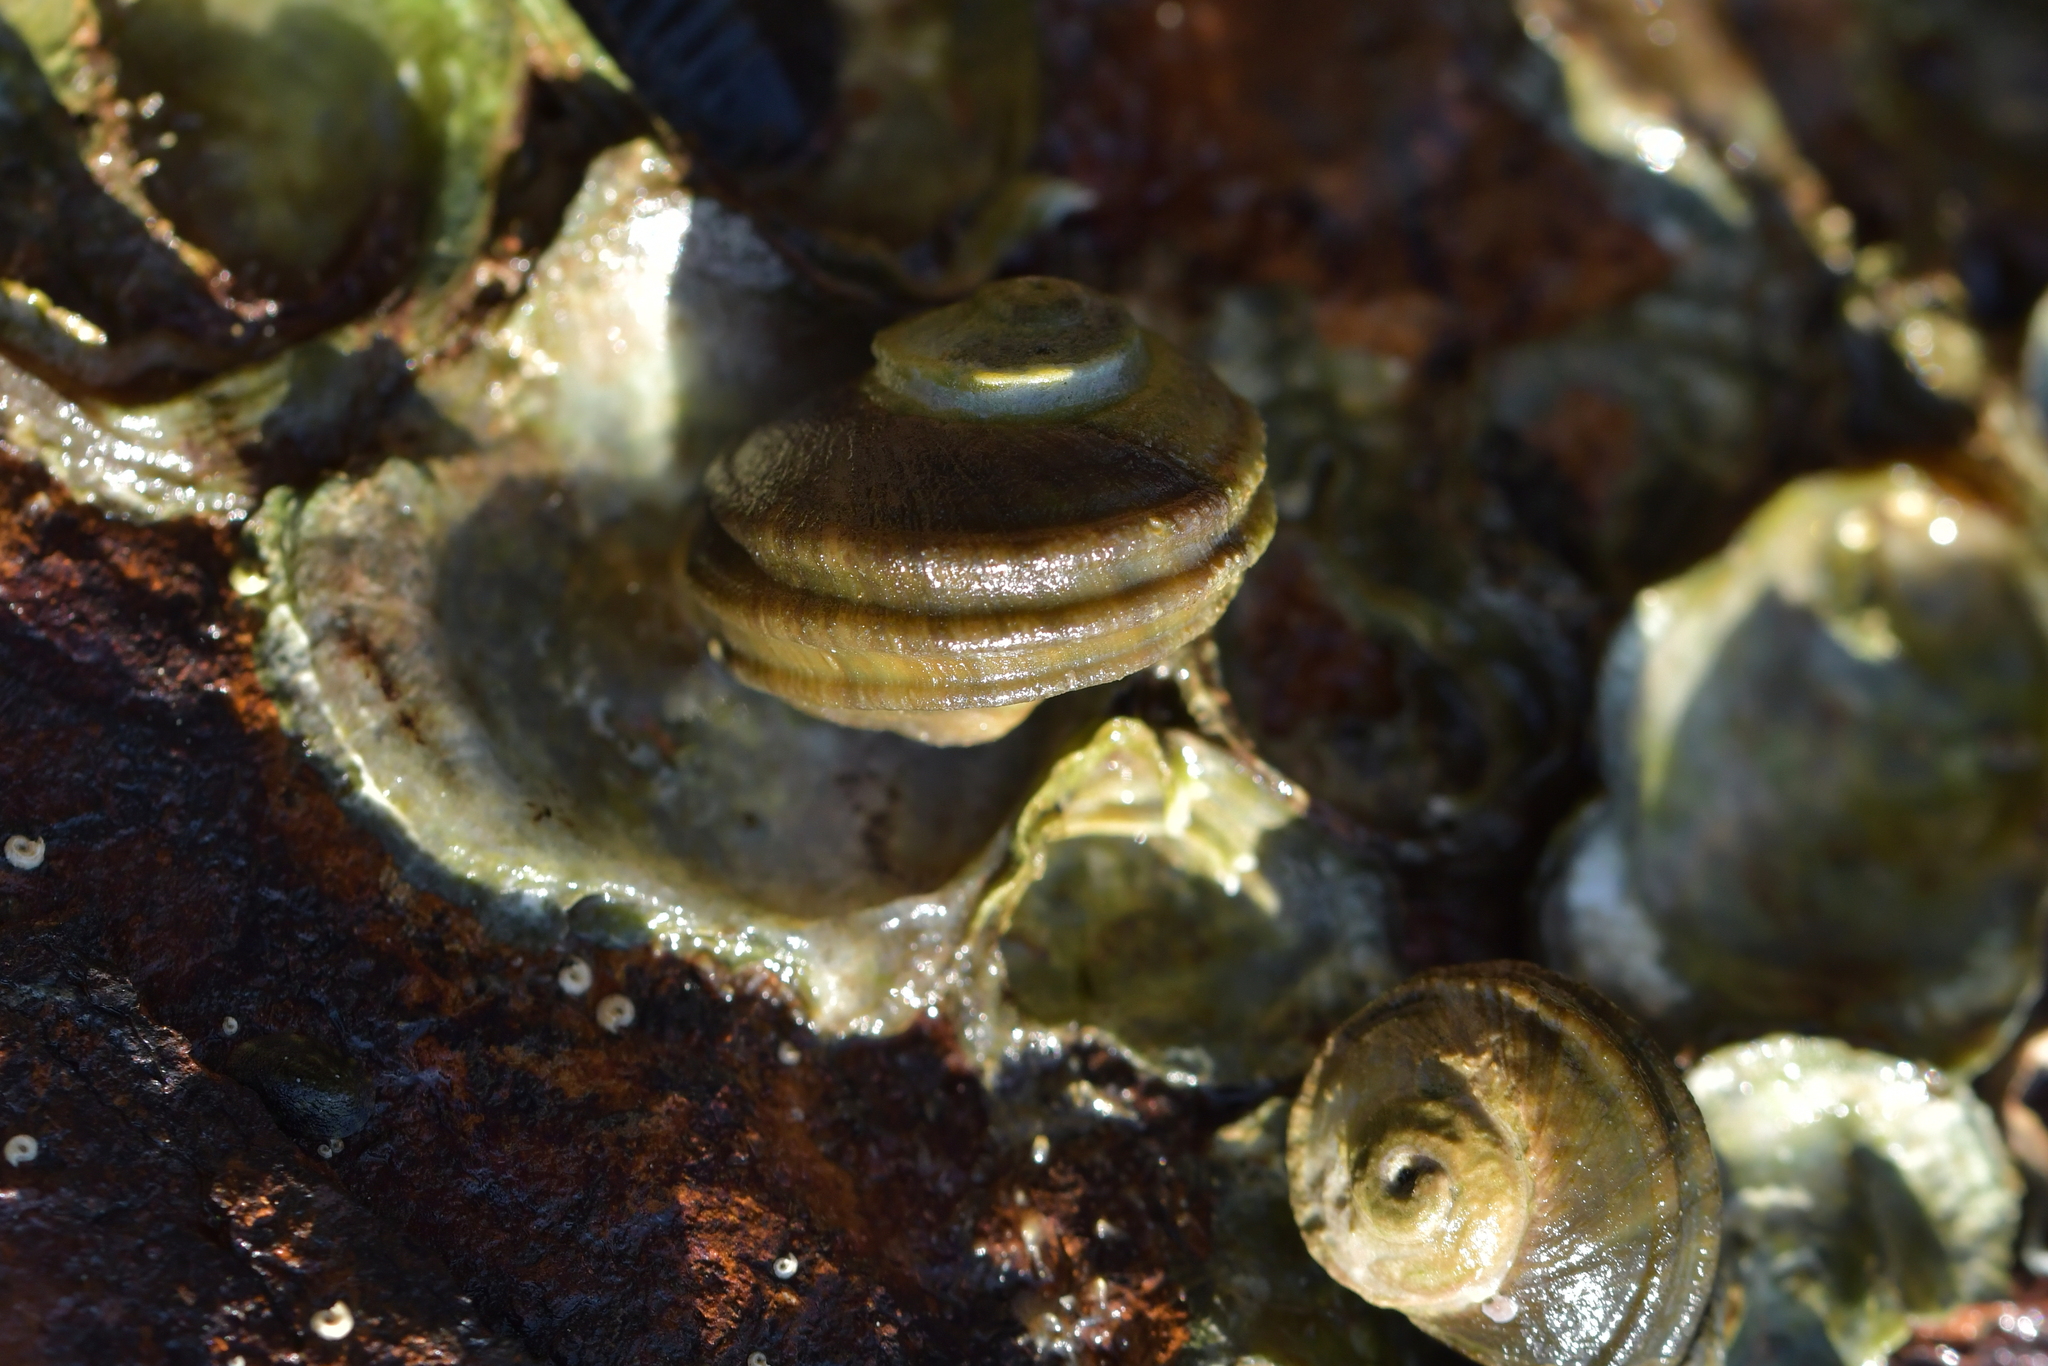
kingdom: Animalia
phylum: Mollusca
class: Gastropoda
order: Trochida
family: Turbinidae
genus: Lunella
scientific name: Lunella smaragda
